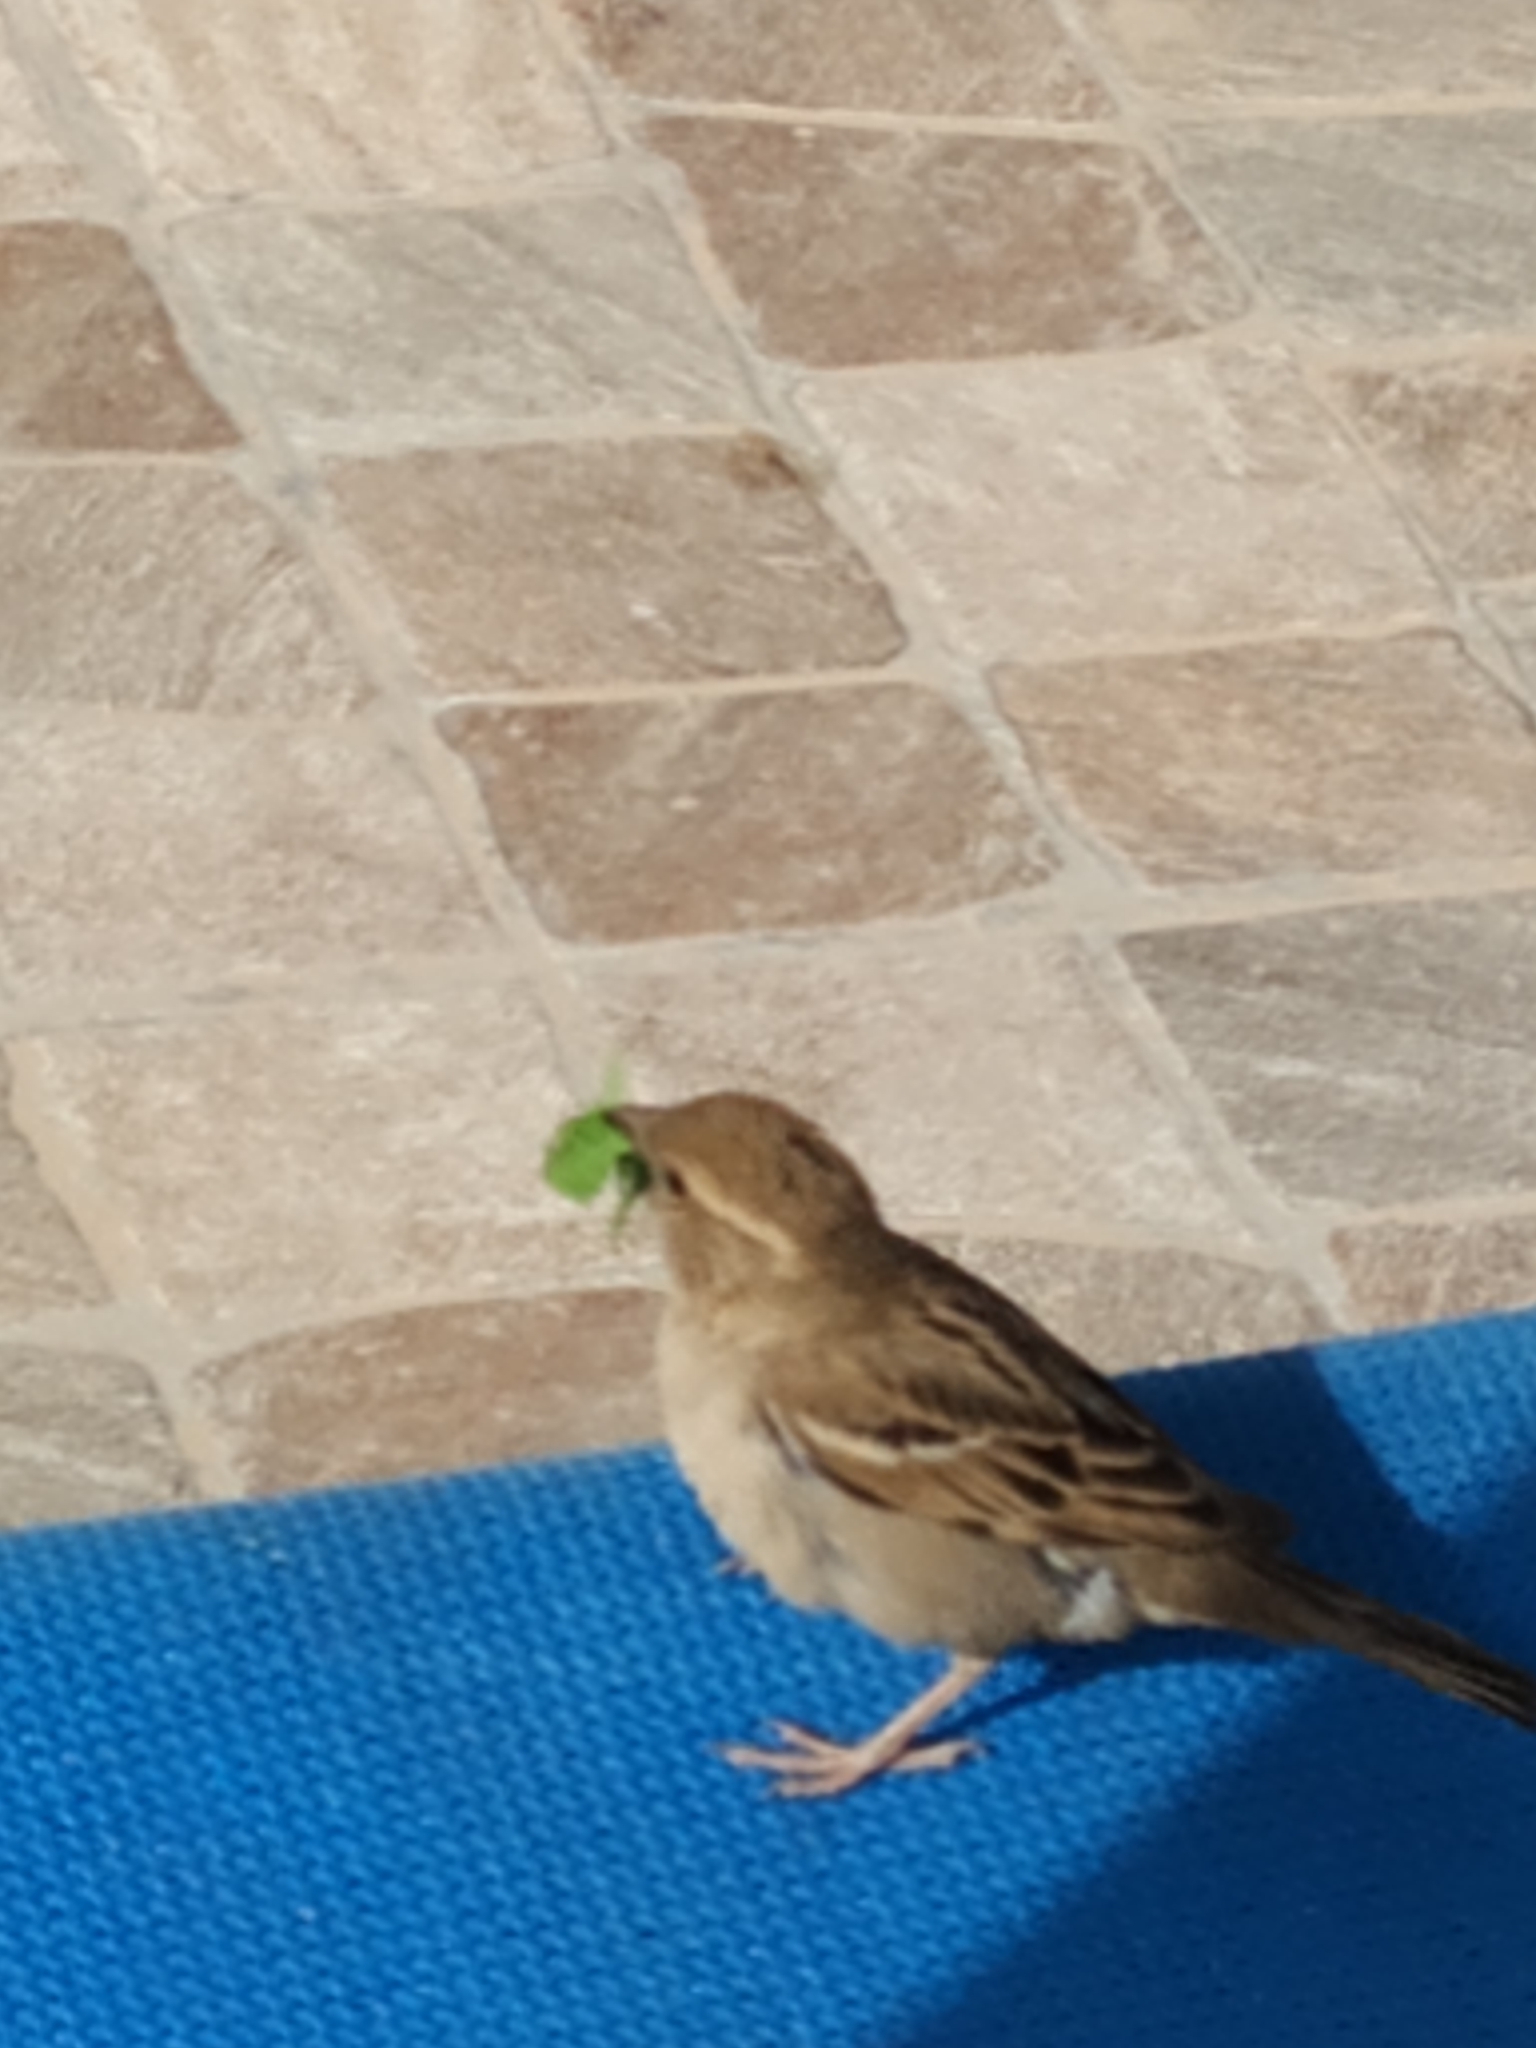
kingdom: Animalia
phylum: Chordata
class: Aves
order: Passeriformes
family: Passeridae
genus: Passer
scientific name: Passer domesticus
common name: House sparrow
